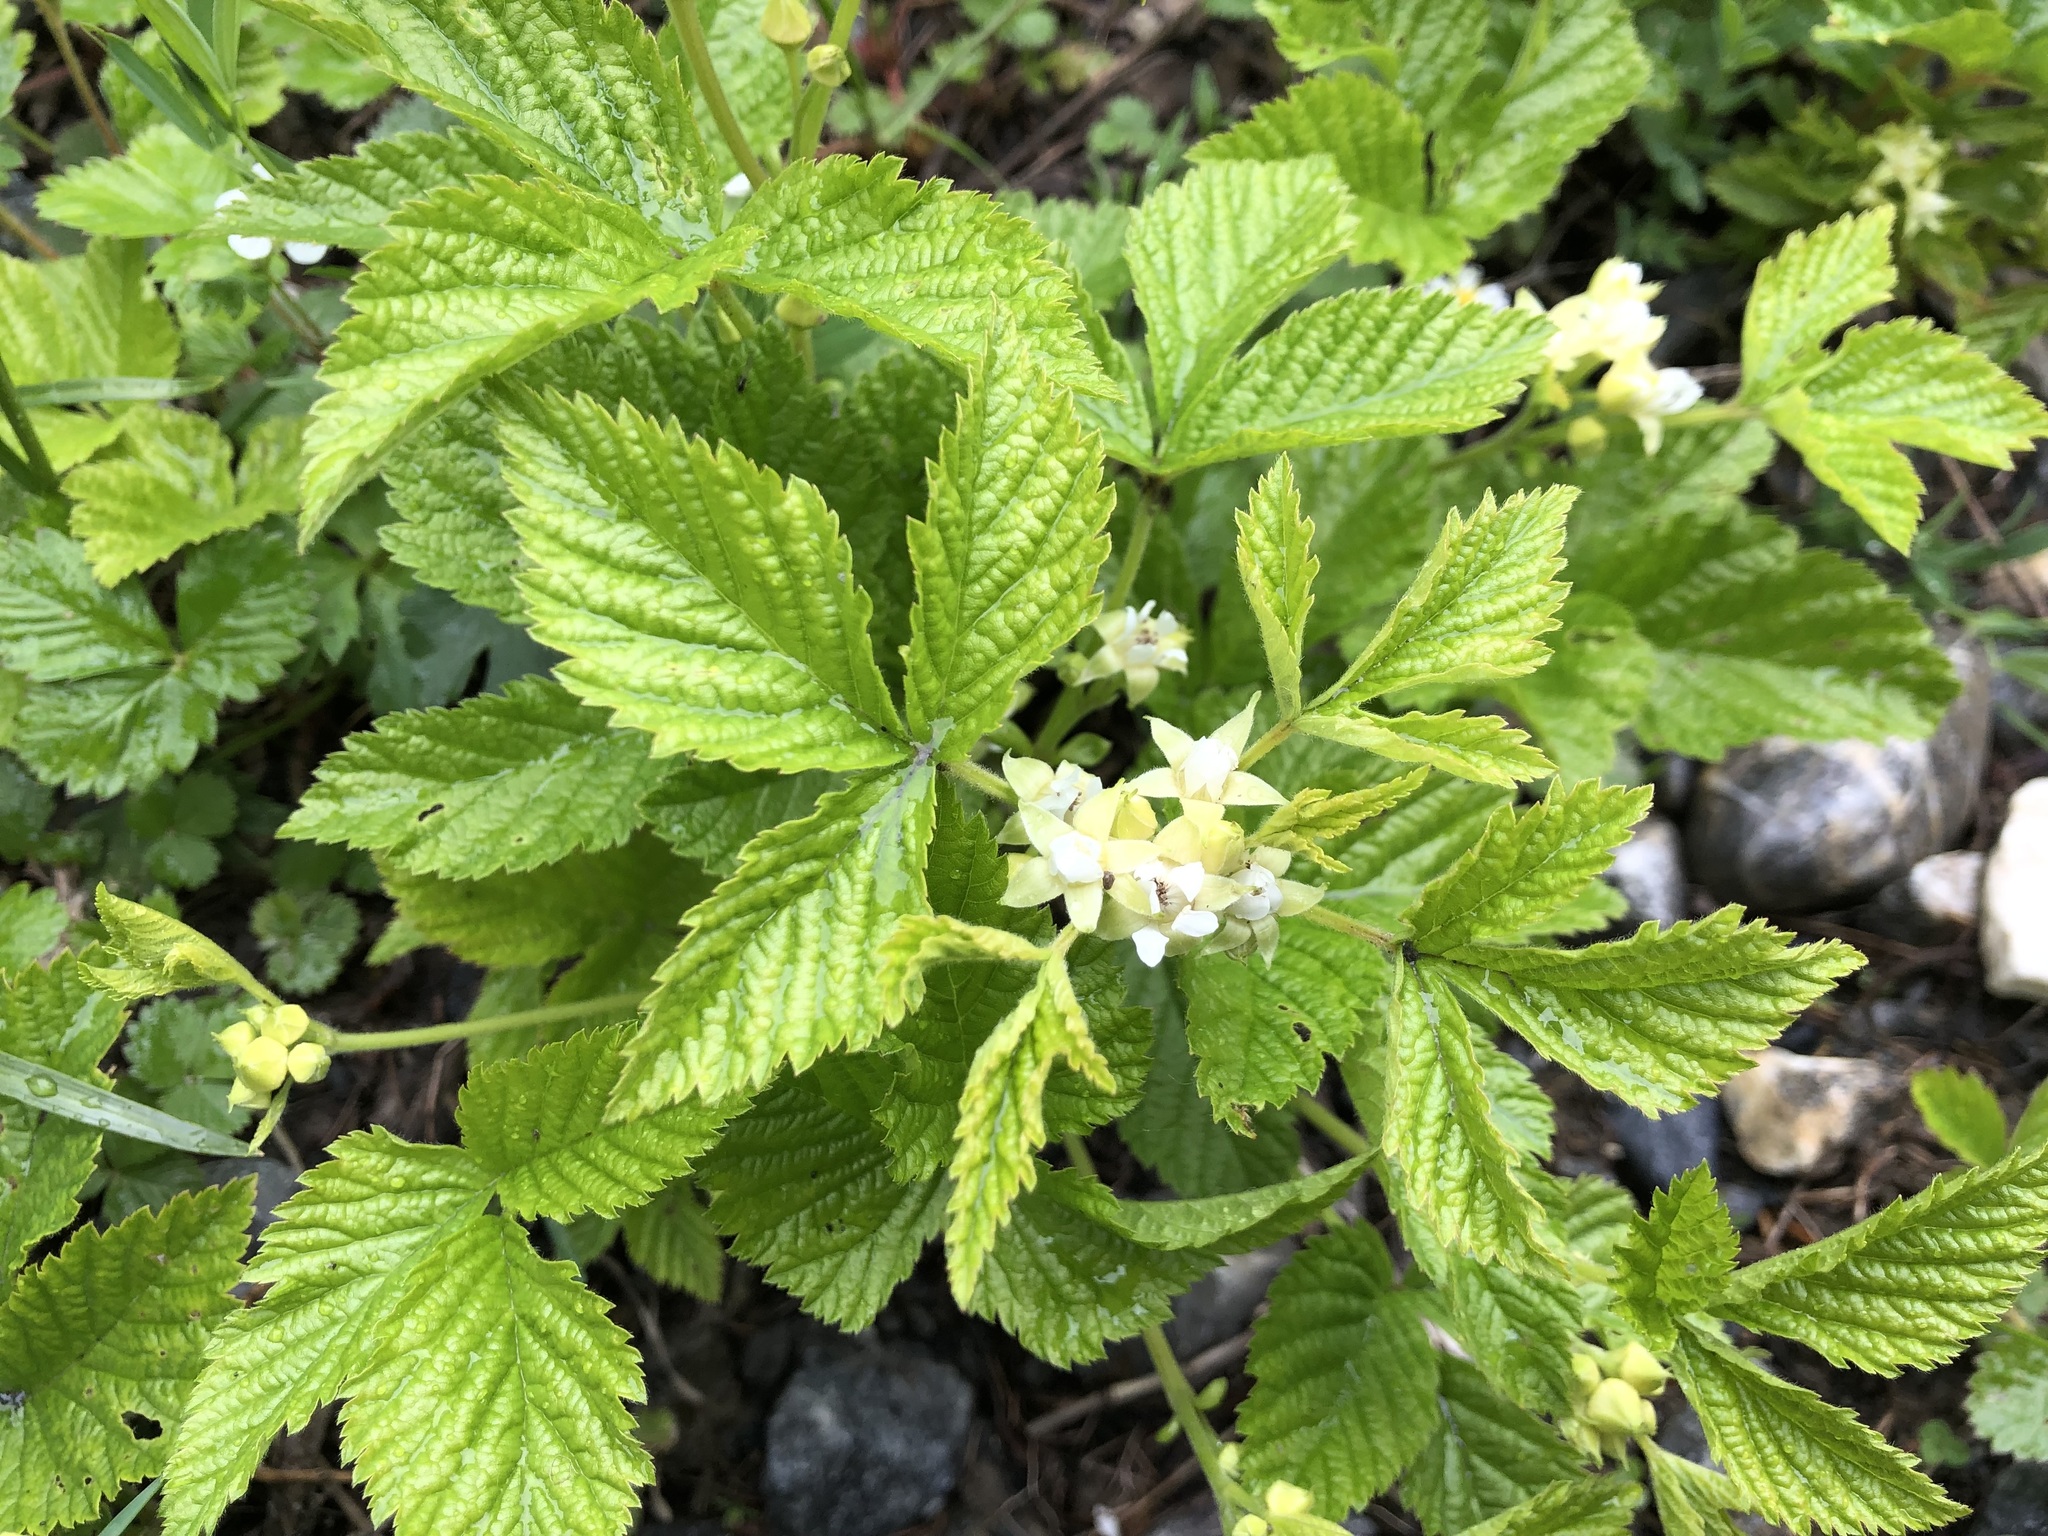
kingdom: Plantae
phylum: Tracheophyta
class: Magnoliopsida
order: Rosales
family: Rosaceae
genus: Rubus
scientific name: Rubus saxatilis
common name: Stone bramble
